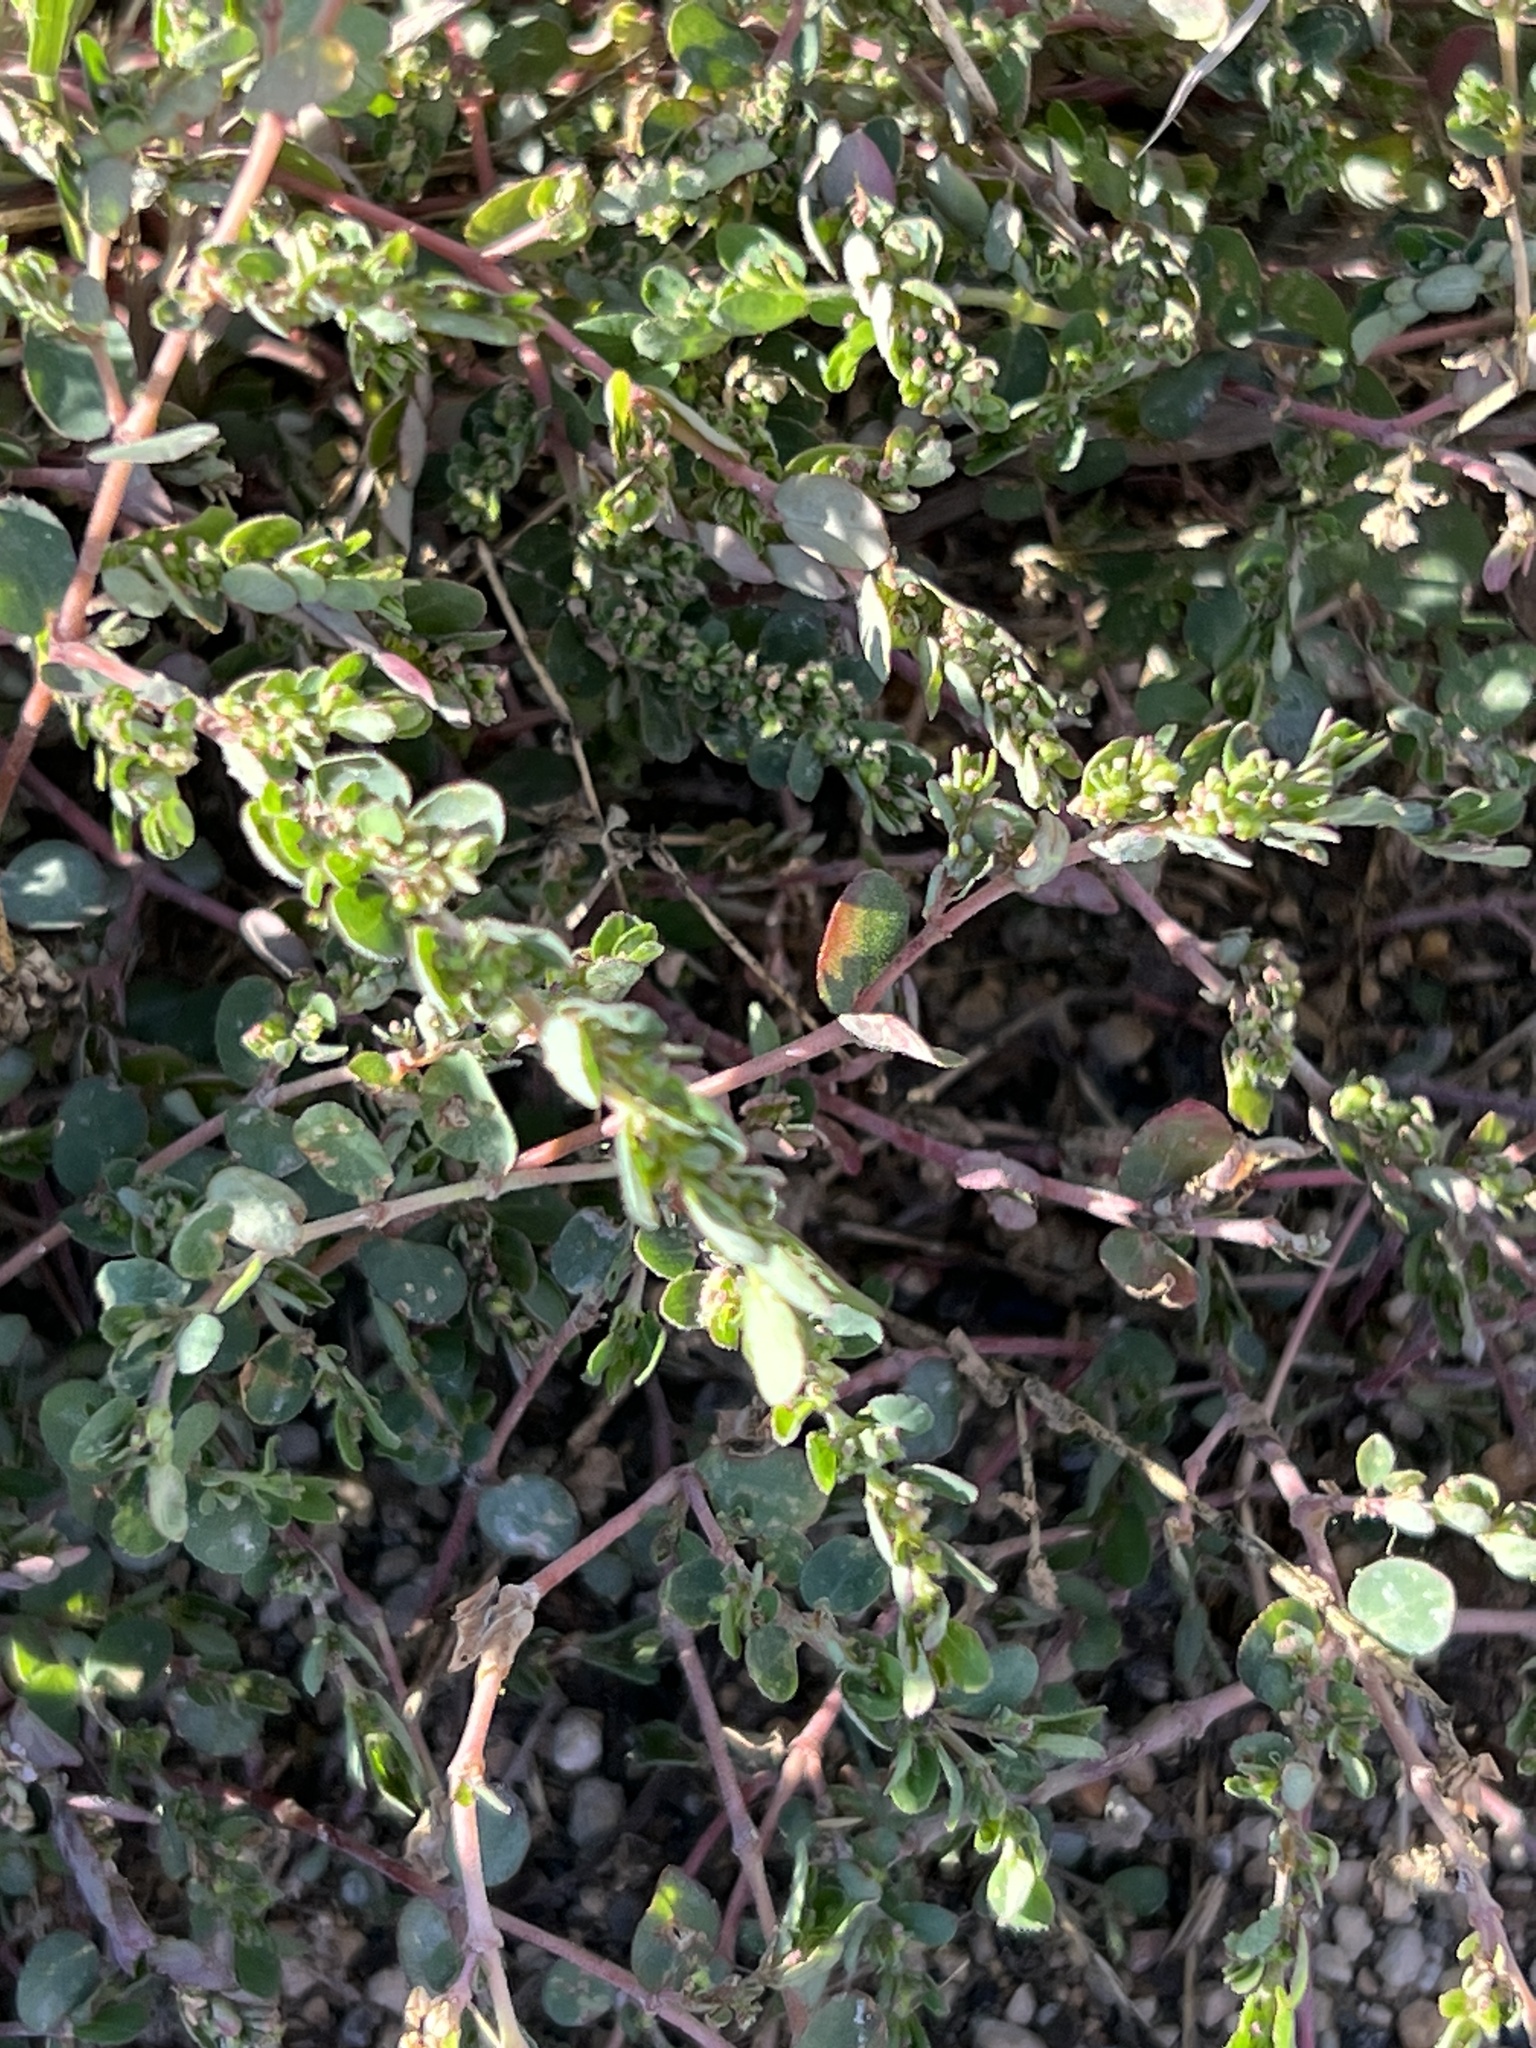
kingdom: Plantae
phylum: Tracheophyta
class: Magnoliopsida
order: Malpighiales
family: Euphorbiaceae
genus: Euphorbia
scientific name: Euphorbia prostrata
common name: Prostrate sandmat
